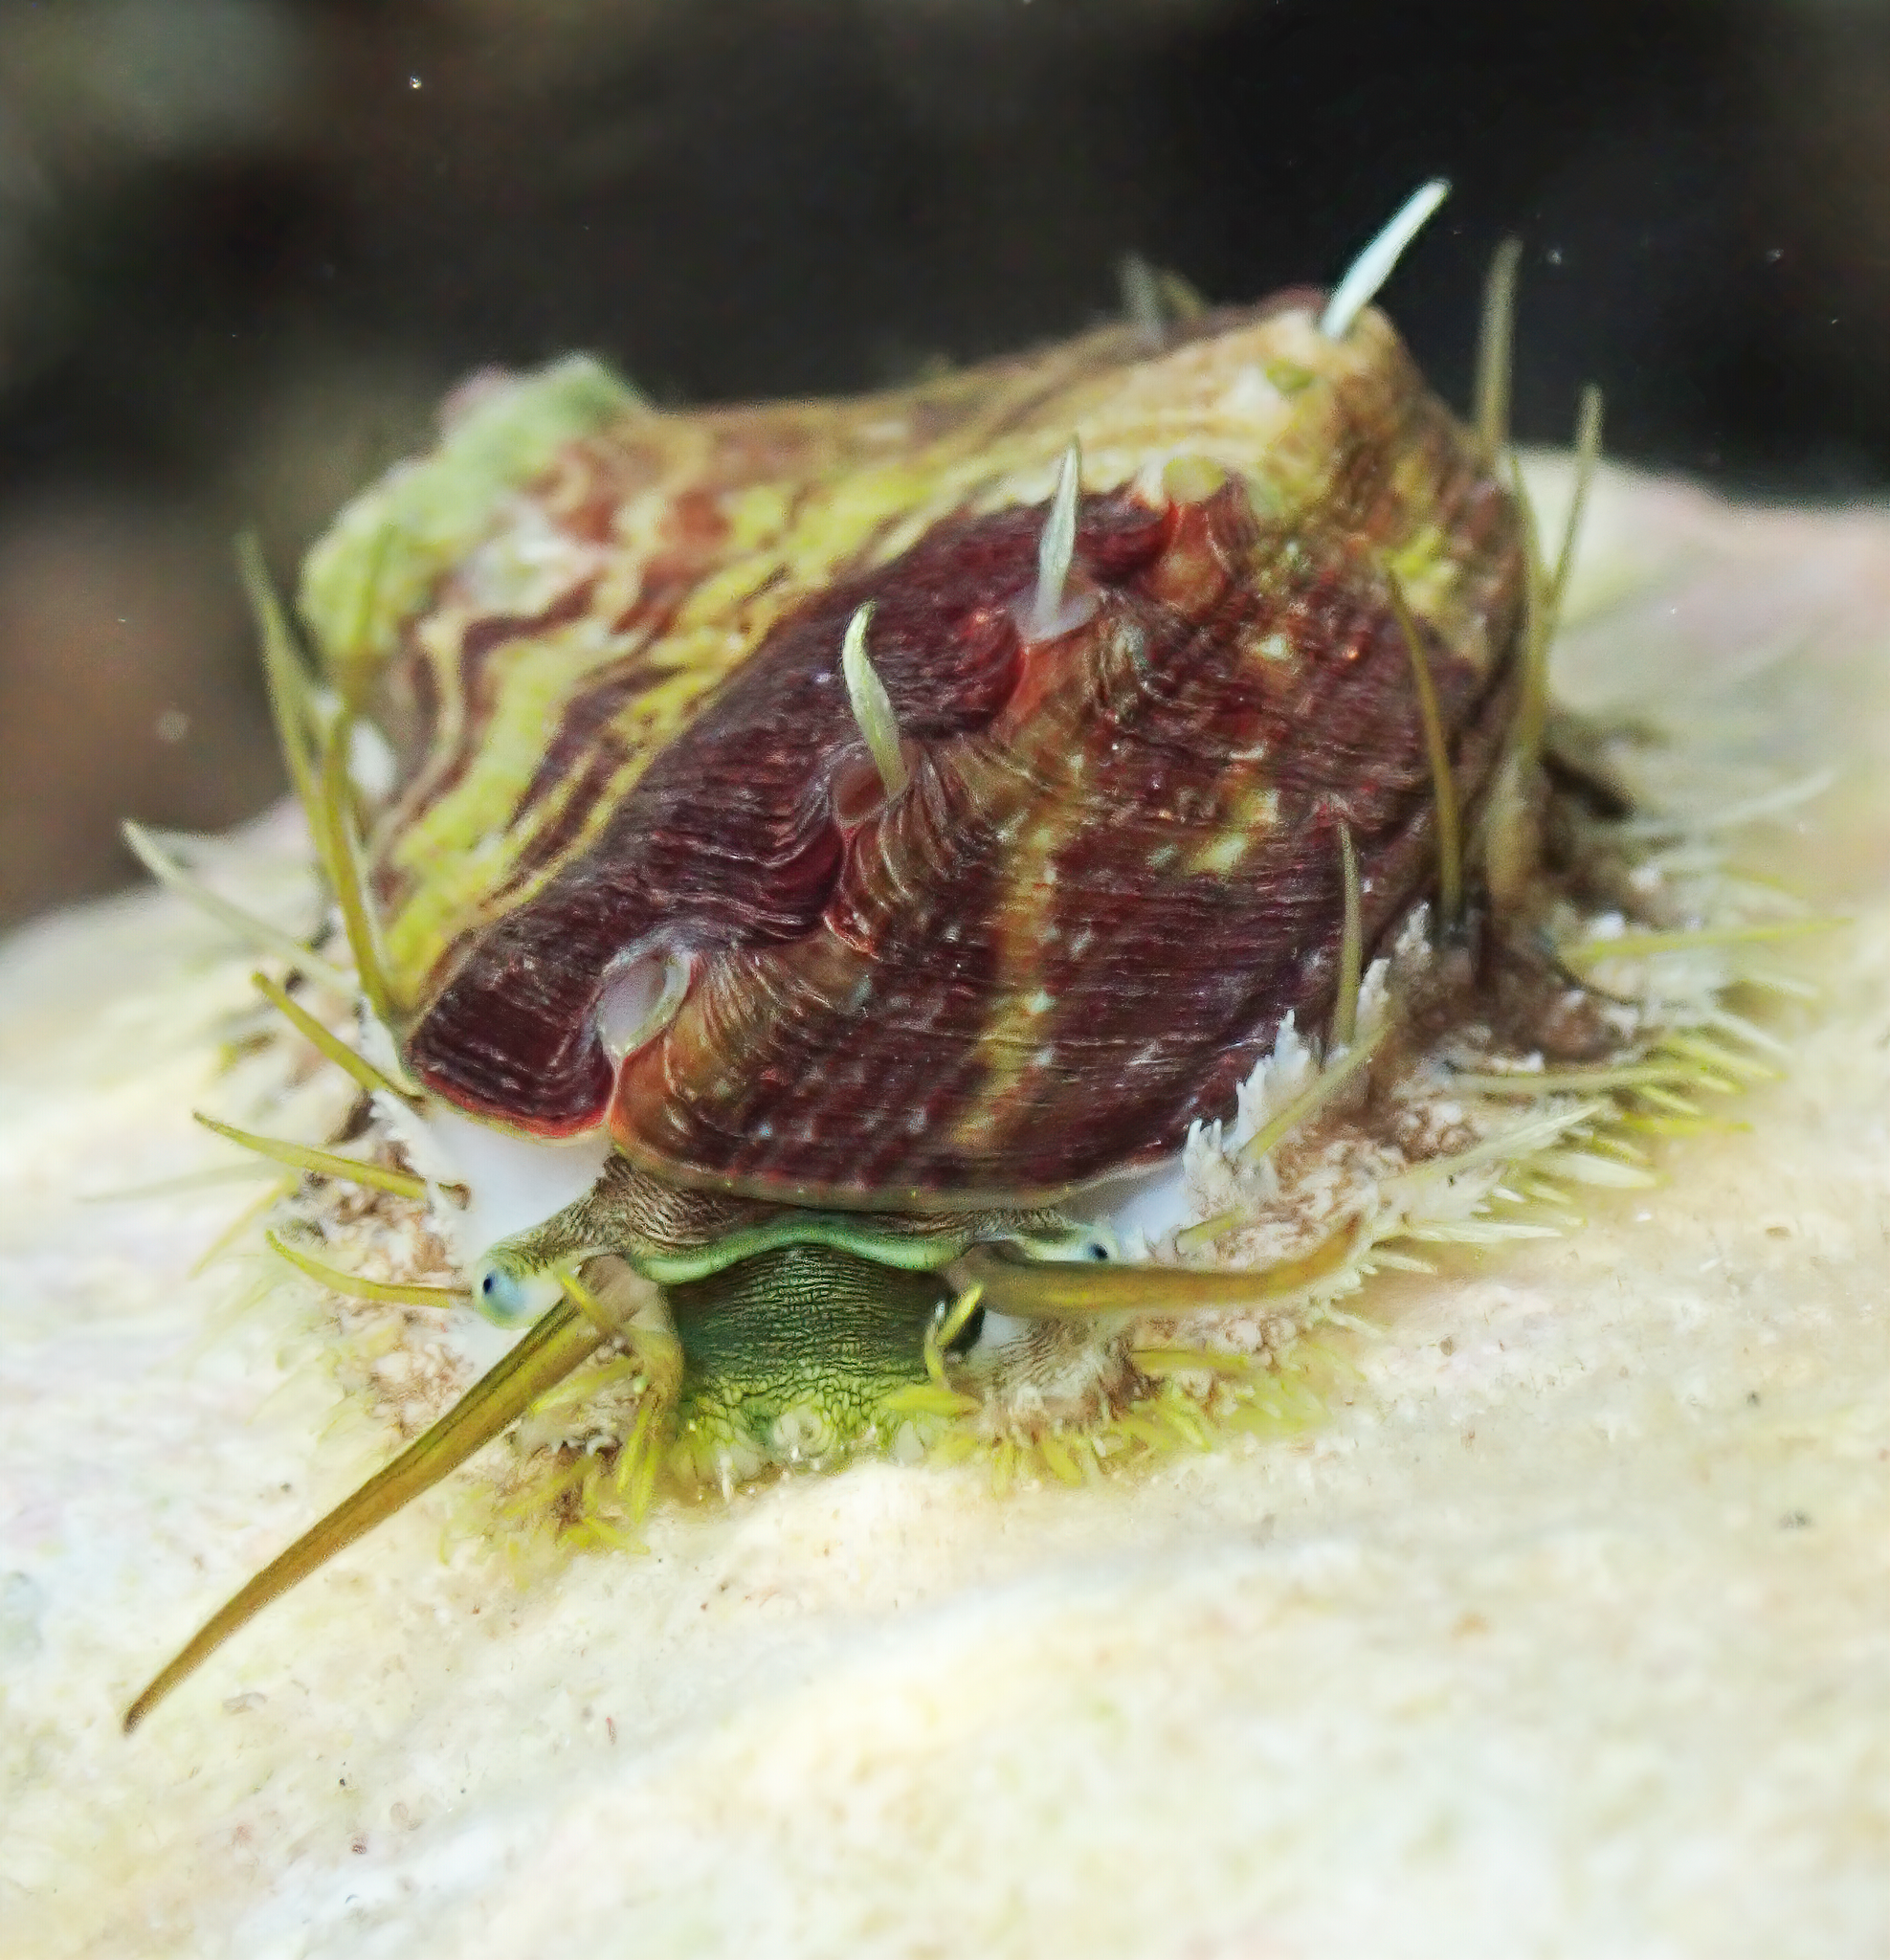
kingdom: Animalia
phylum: Mollusca
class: Gastropoda
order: Lepetellida
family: Haliotidae
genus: Haliotis
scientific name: Haliotis tuberculata
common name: Green ormer
